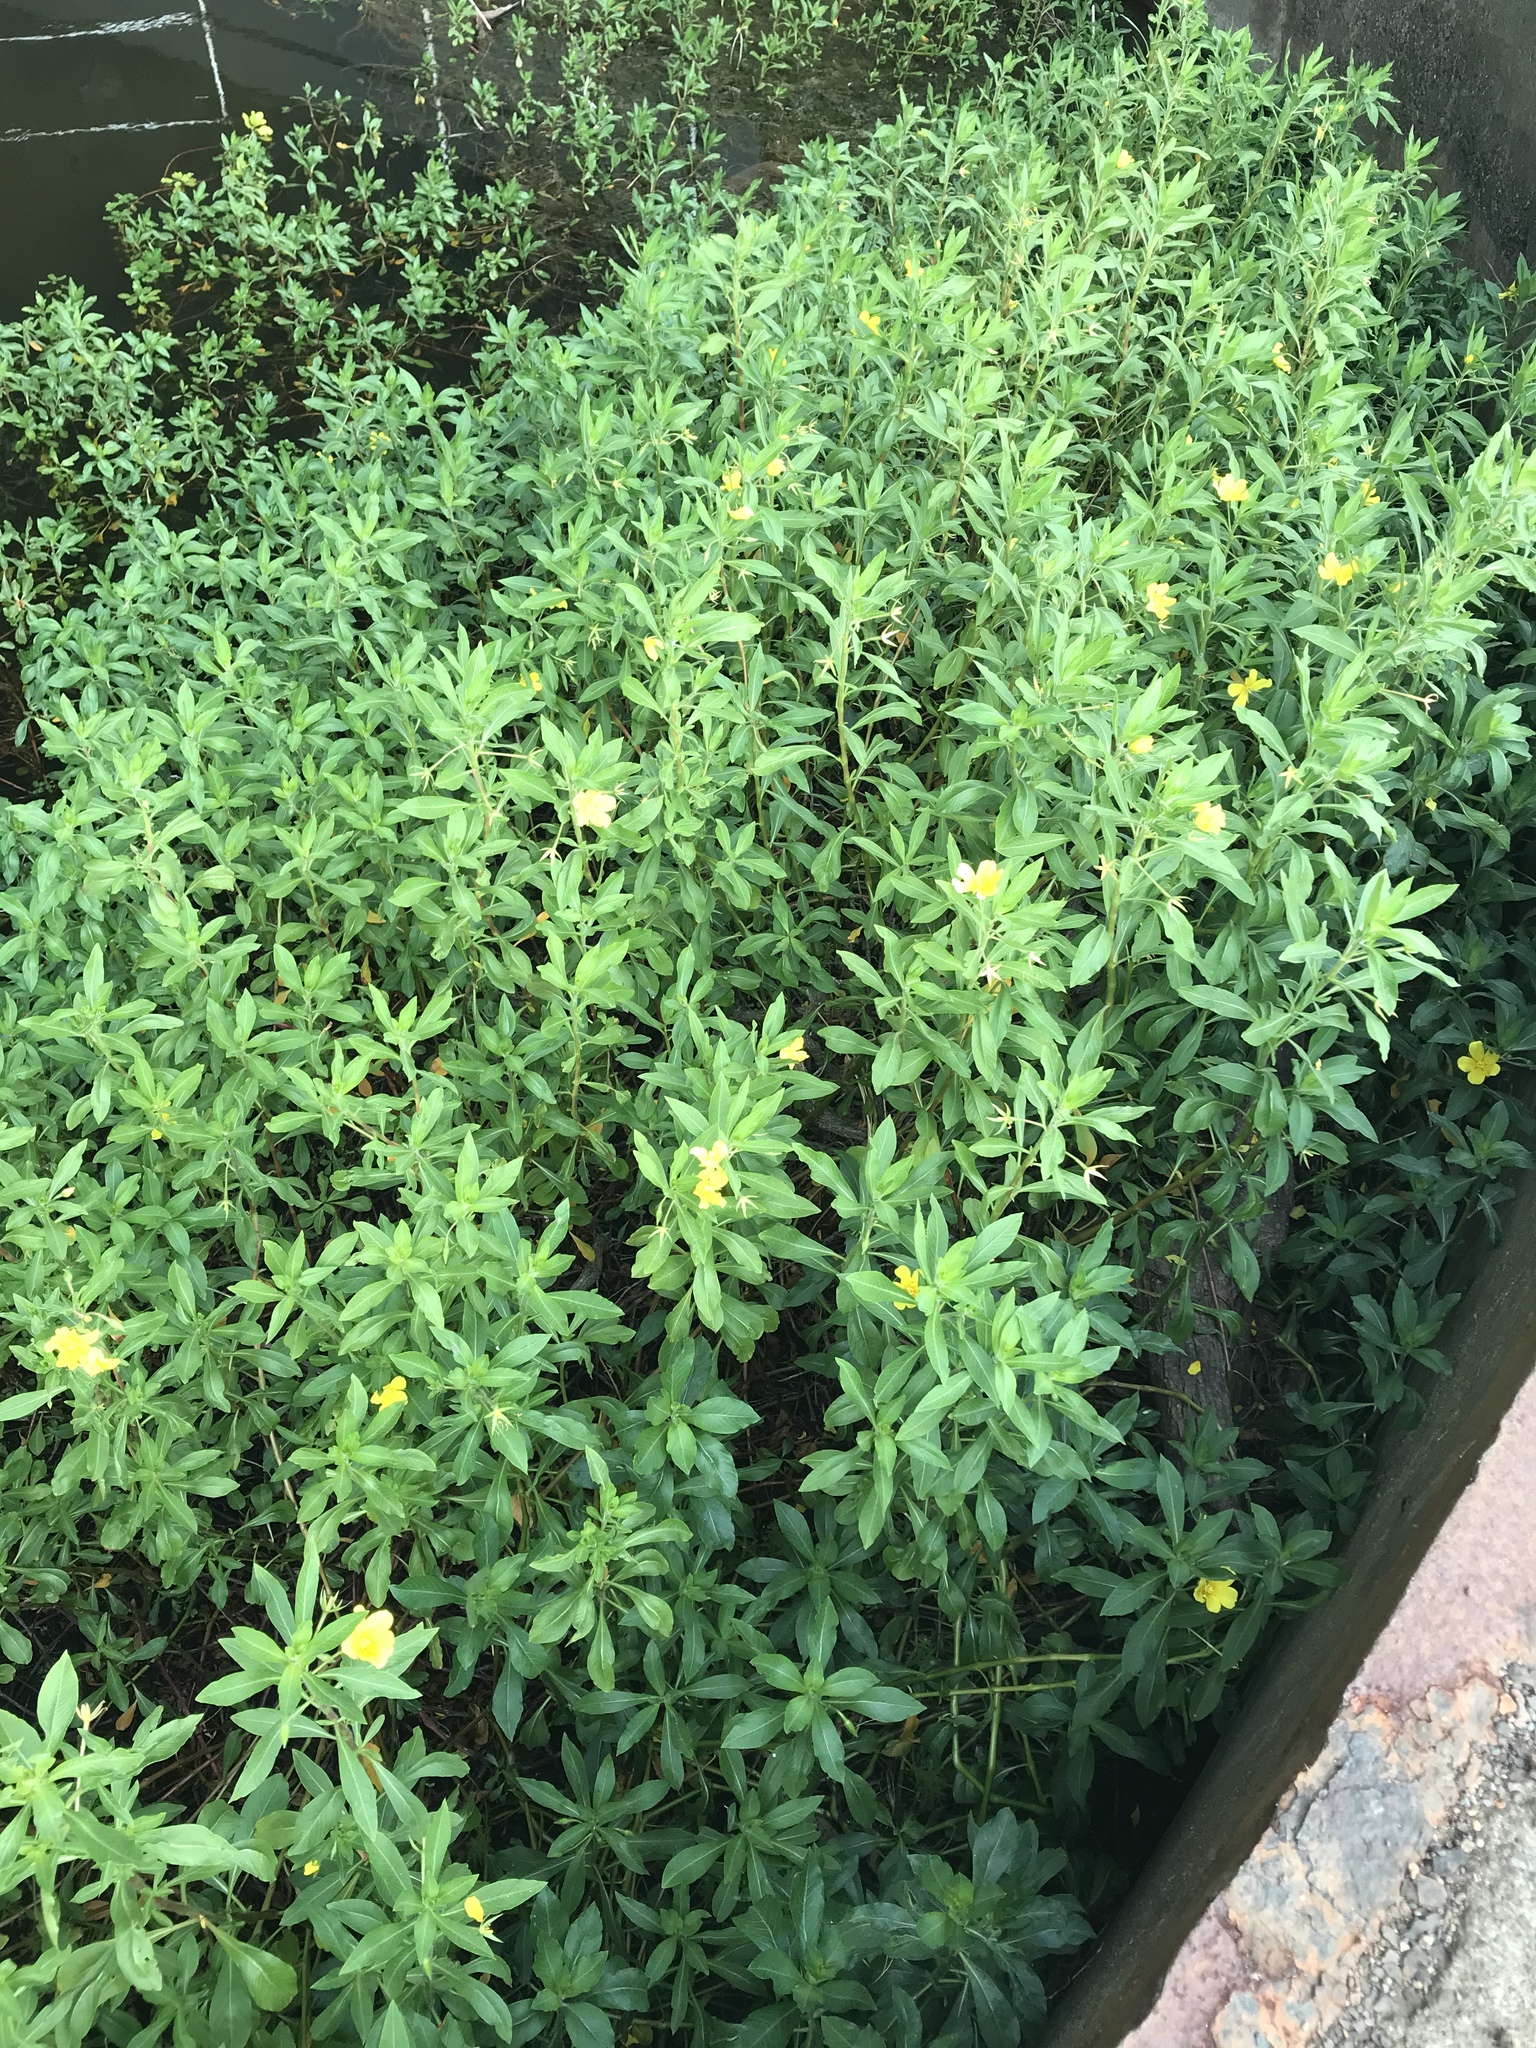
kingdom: Plantae
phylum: Tracheophyta
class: Magnoliopsida
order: Myrtales
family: Onagraceae
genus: Ludwigia
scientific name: Ludwigia hexapetala
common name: Water-primrose
